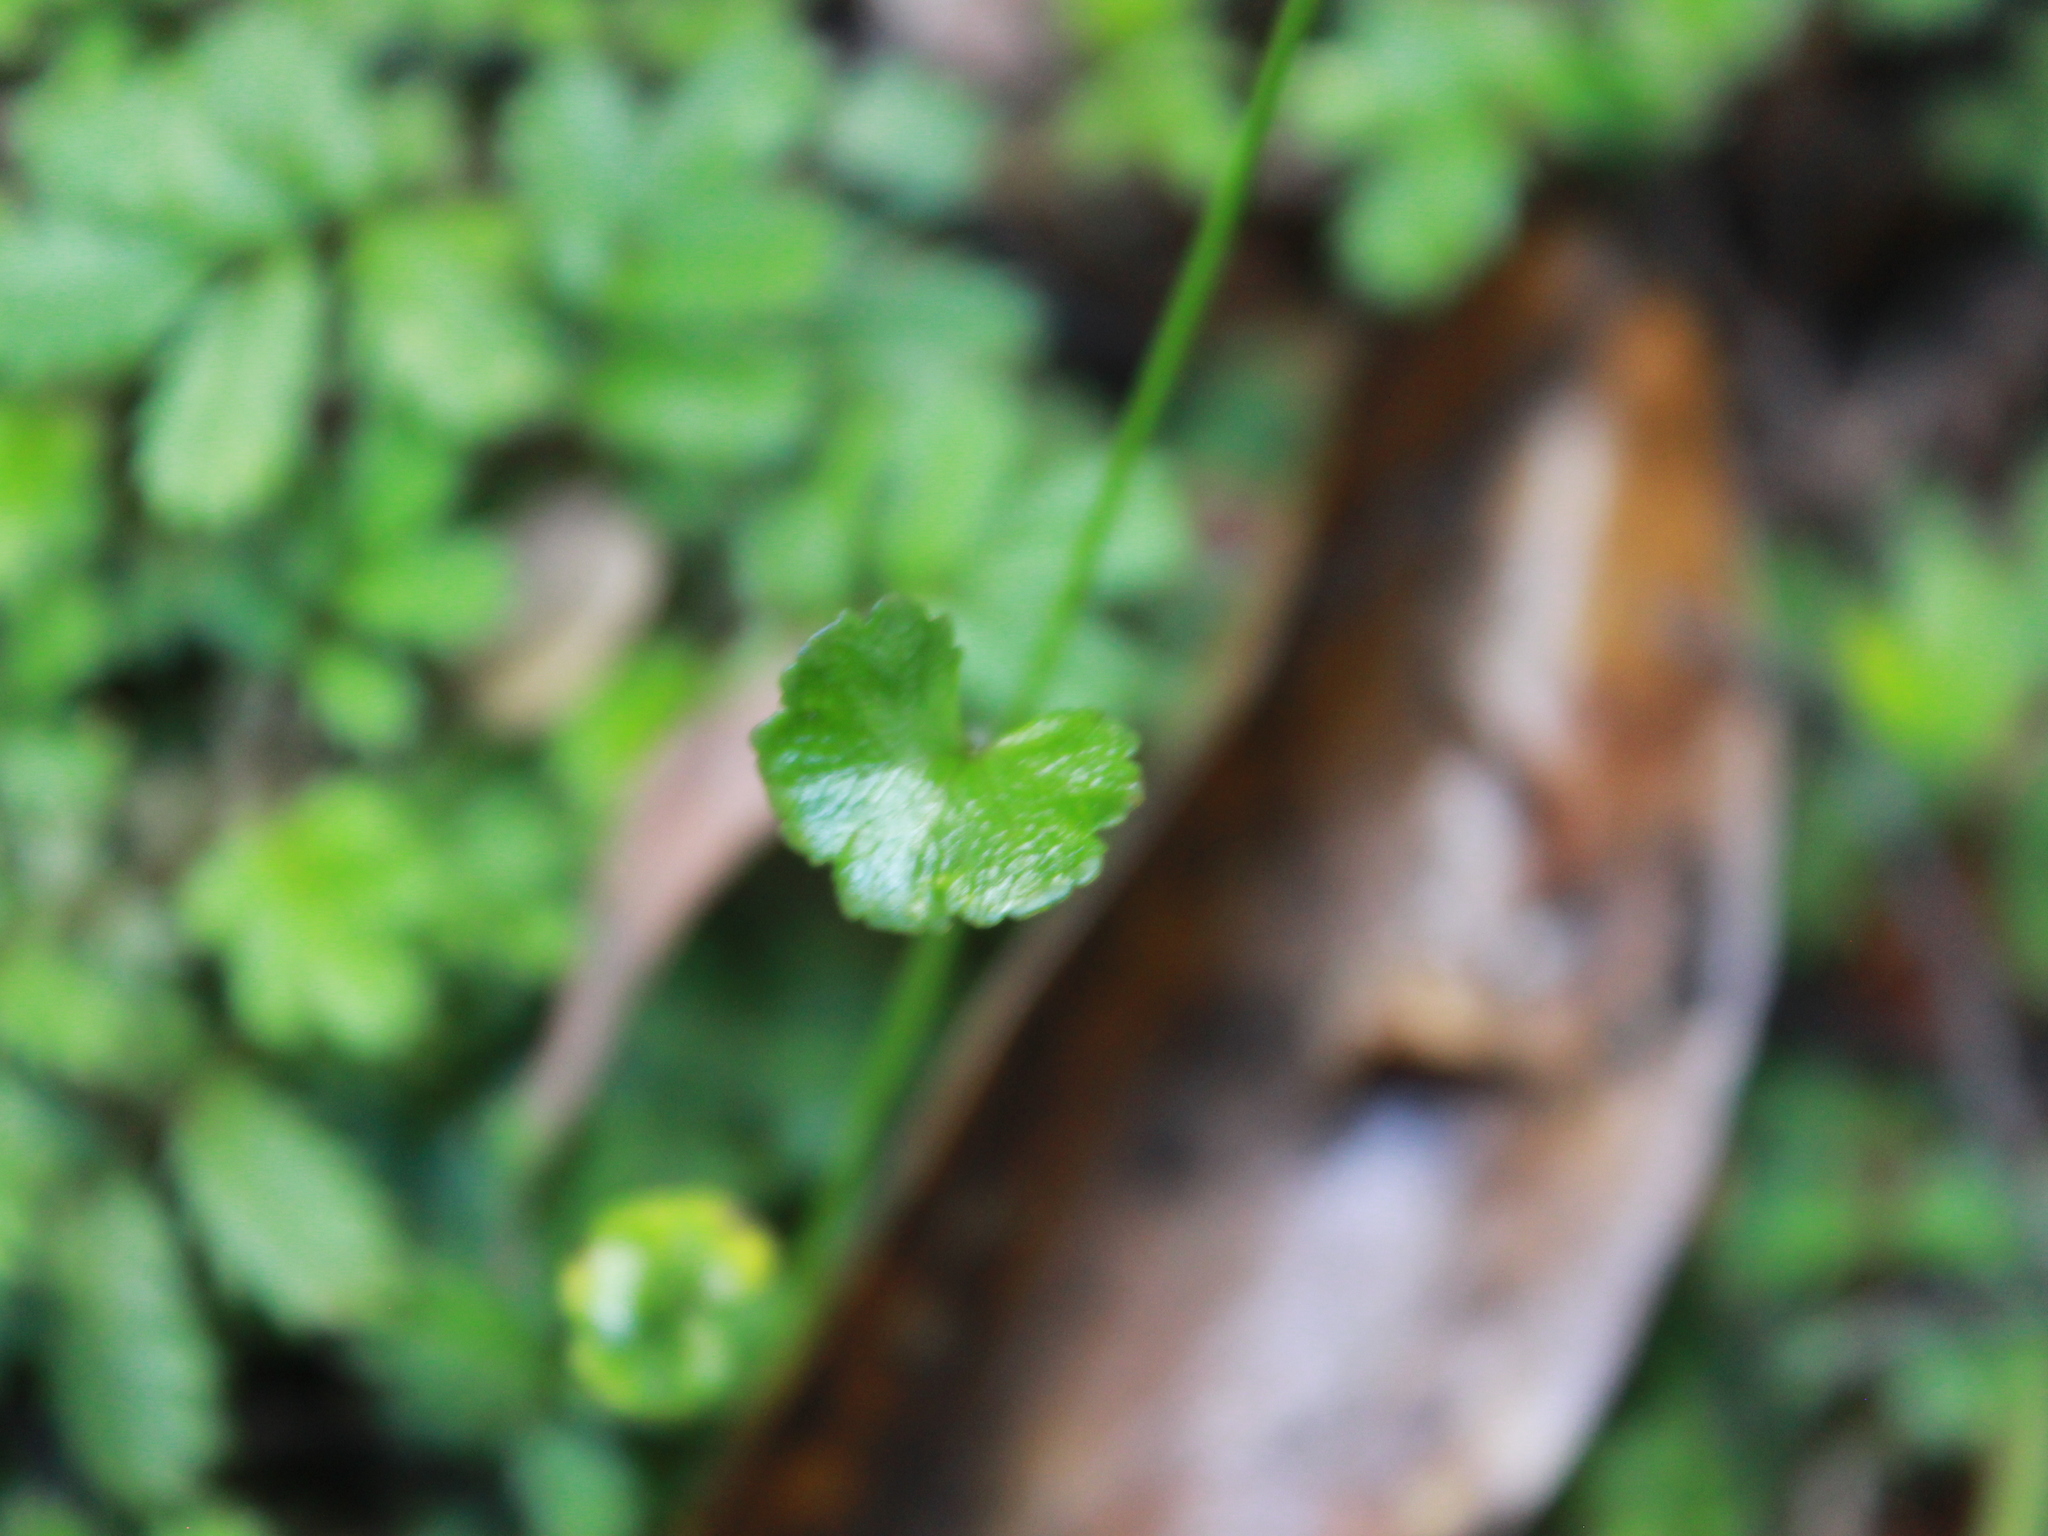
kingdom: Plantae
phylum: Tracheophyta
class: Magnoliopsida
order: Apiales
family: Araliaceae
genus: Hydrocotyle
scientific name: Hydrocotyle novae-zeelandiae
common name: New zealand pennywort
